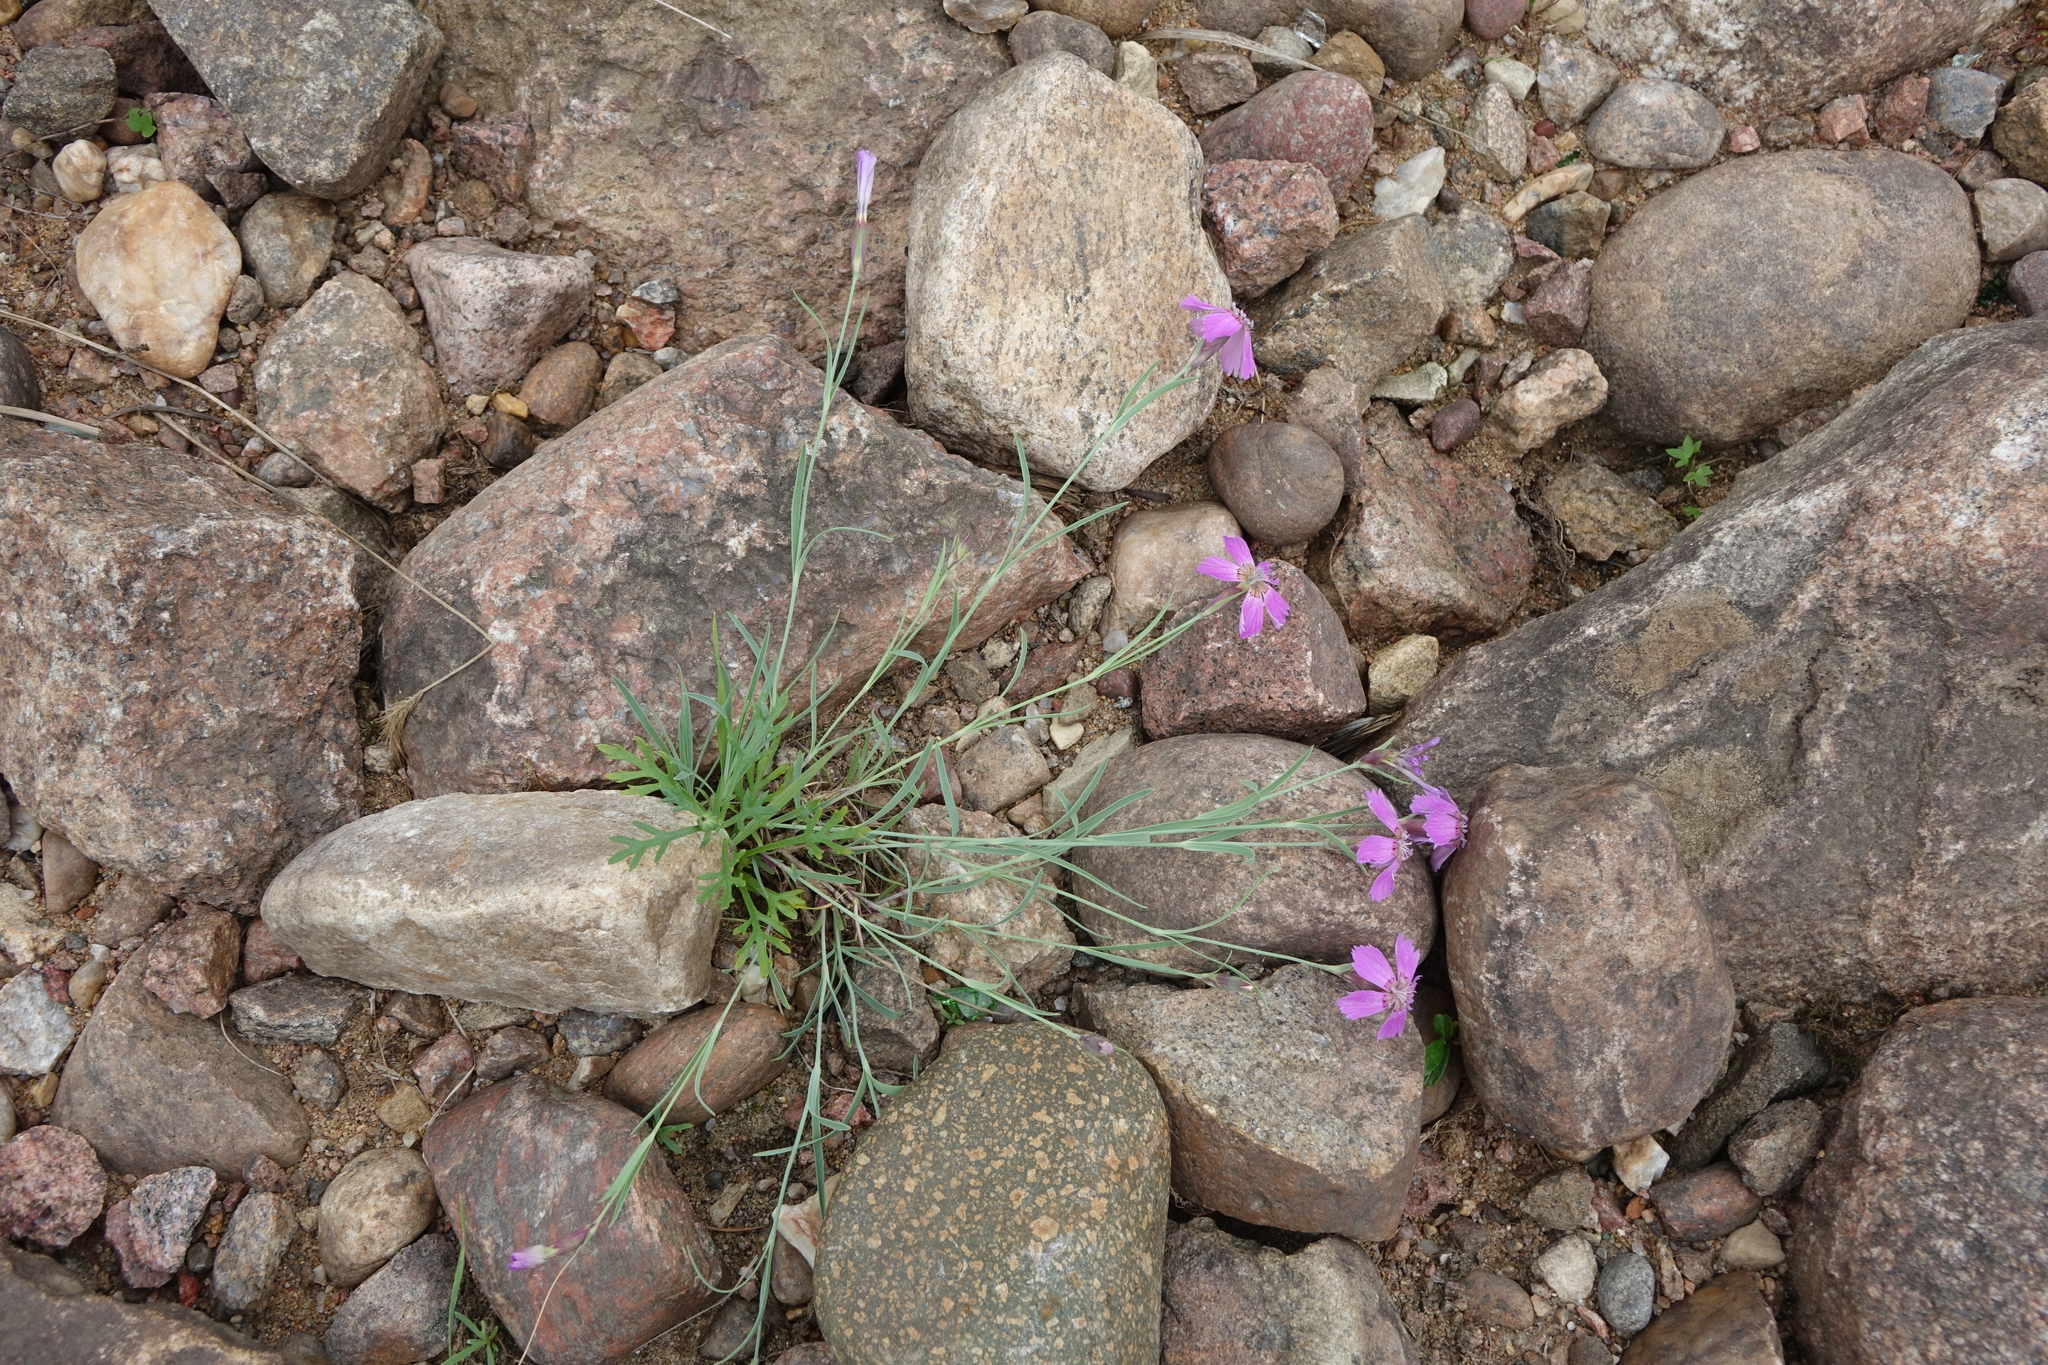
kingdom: Plantae
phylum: Tracheophyta
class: Magnoliopsida
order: Caryophyllales
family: Caryophyllaceae
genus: Dianthus
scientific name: Dianthus repens
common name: Northern pink
